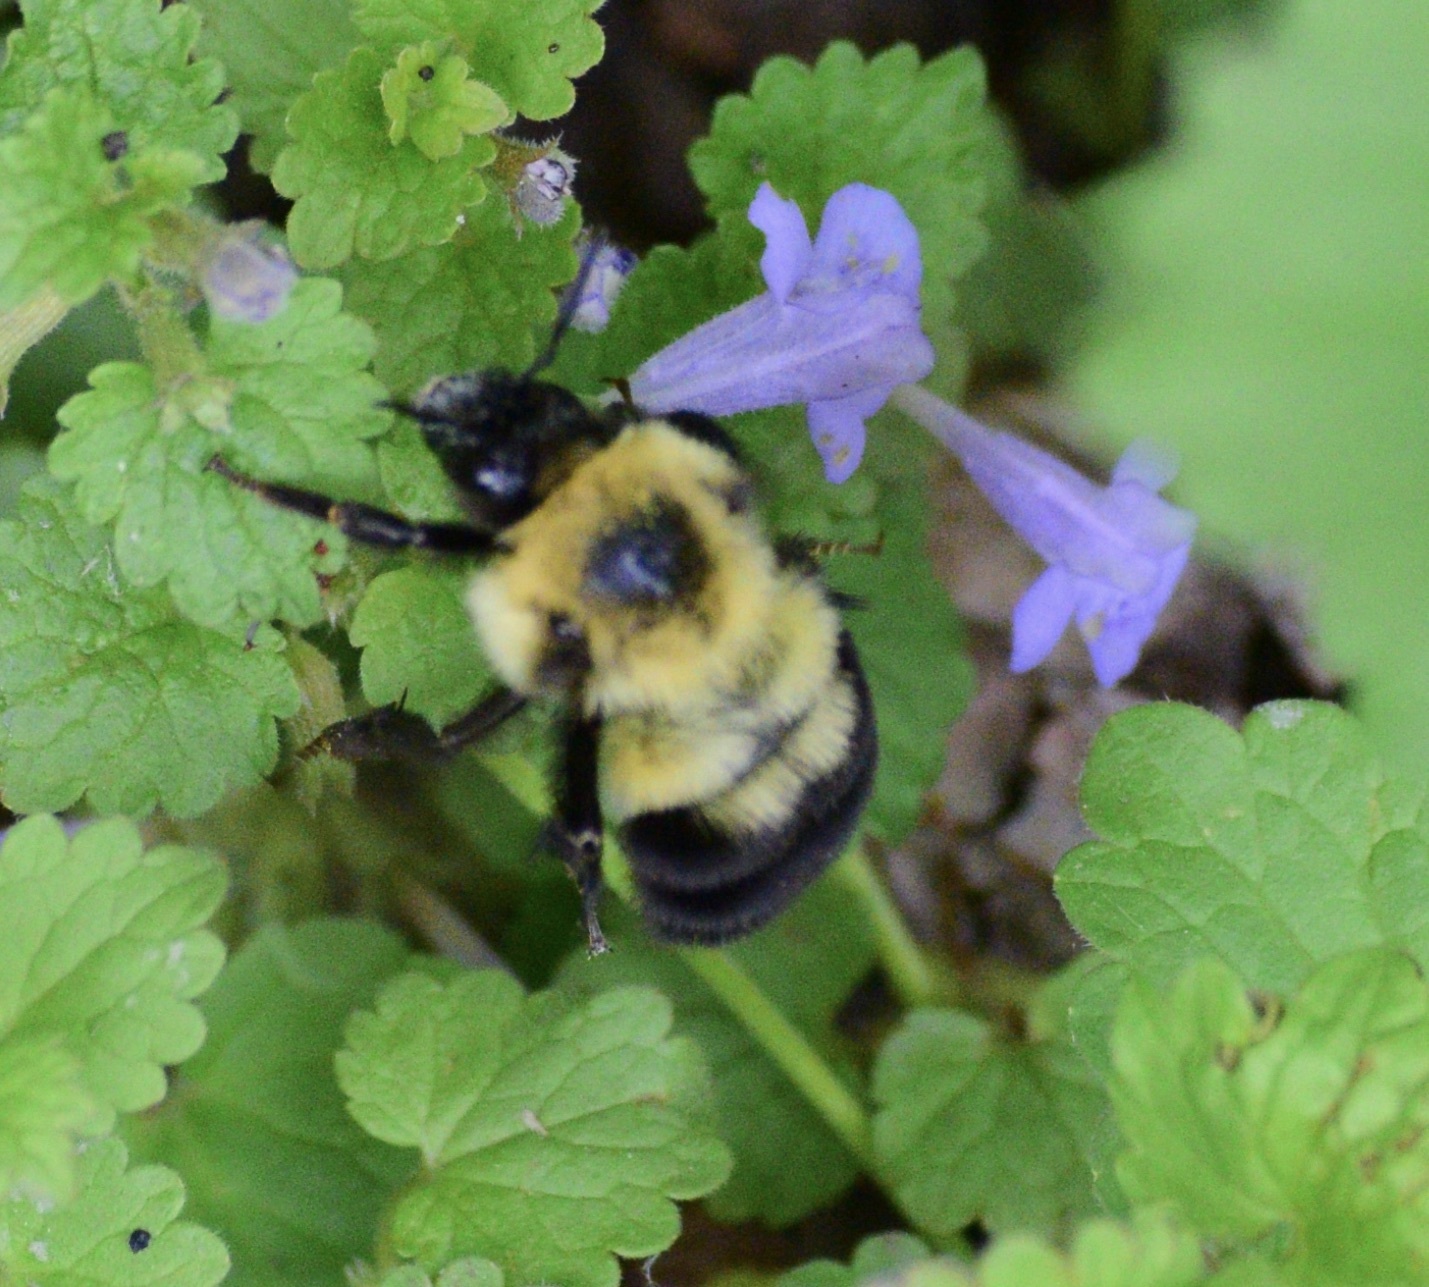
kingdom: Animalia
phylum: Arthropoda
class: Insecta
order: Hymenoptera
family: Apidae
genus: Bombus
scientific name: Bombus bimaculatus
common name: Two-spotted bumble bee
